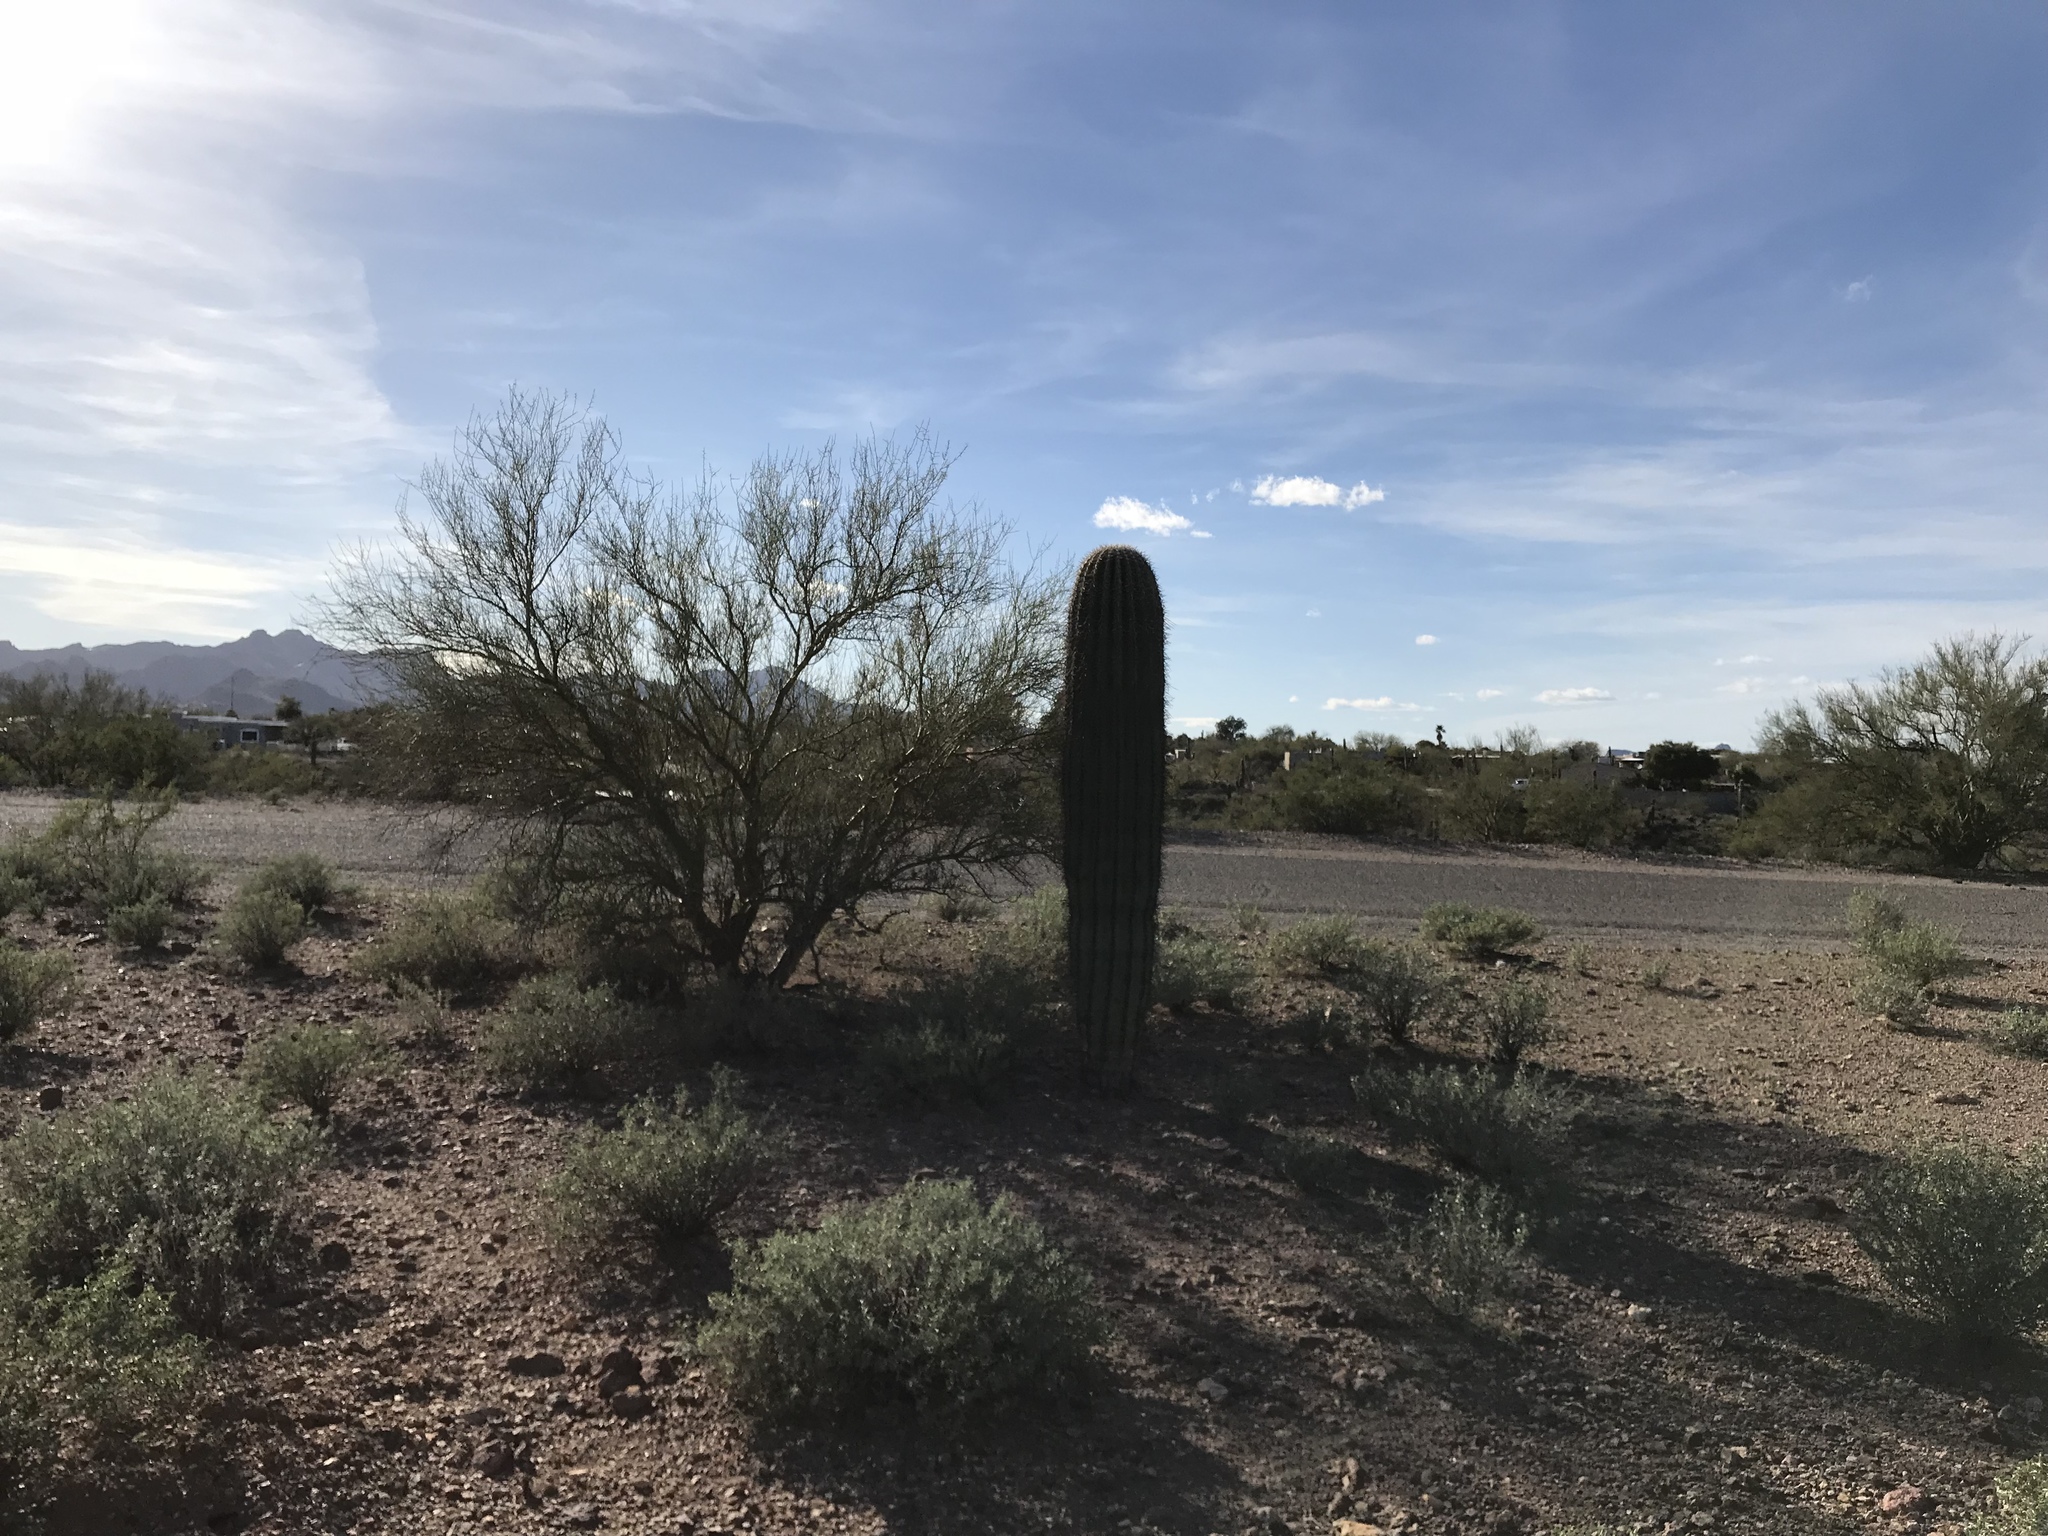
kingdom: Plantae
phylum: Tracheophyta
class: Magnoliopsida
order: Caryophyllales
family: Cactaceae
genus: Carnegiea
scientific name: Carnegiea gigantea
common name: Saguaro
